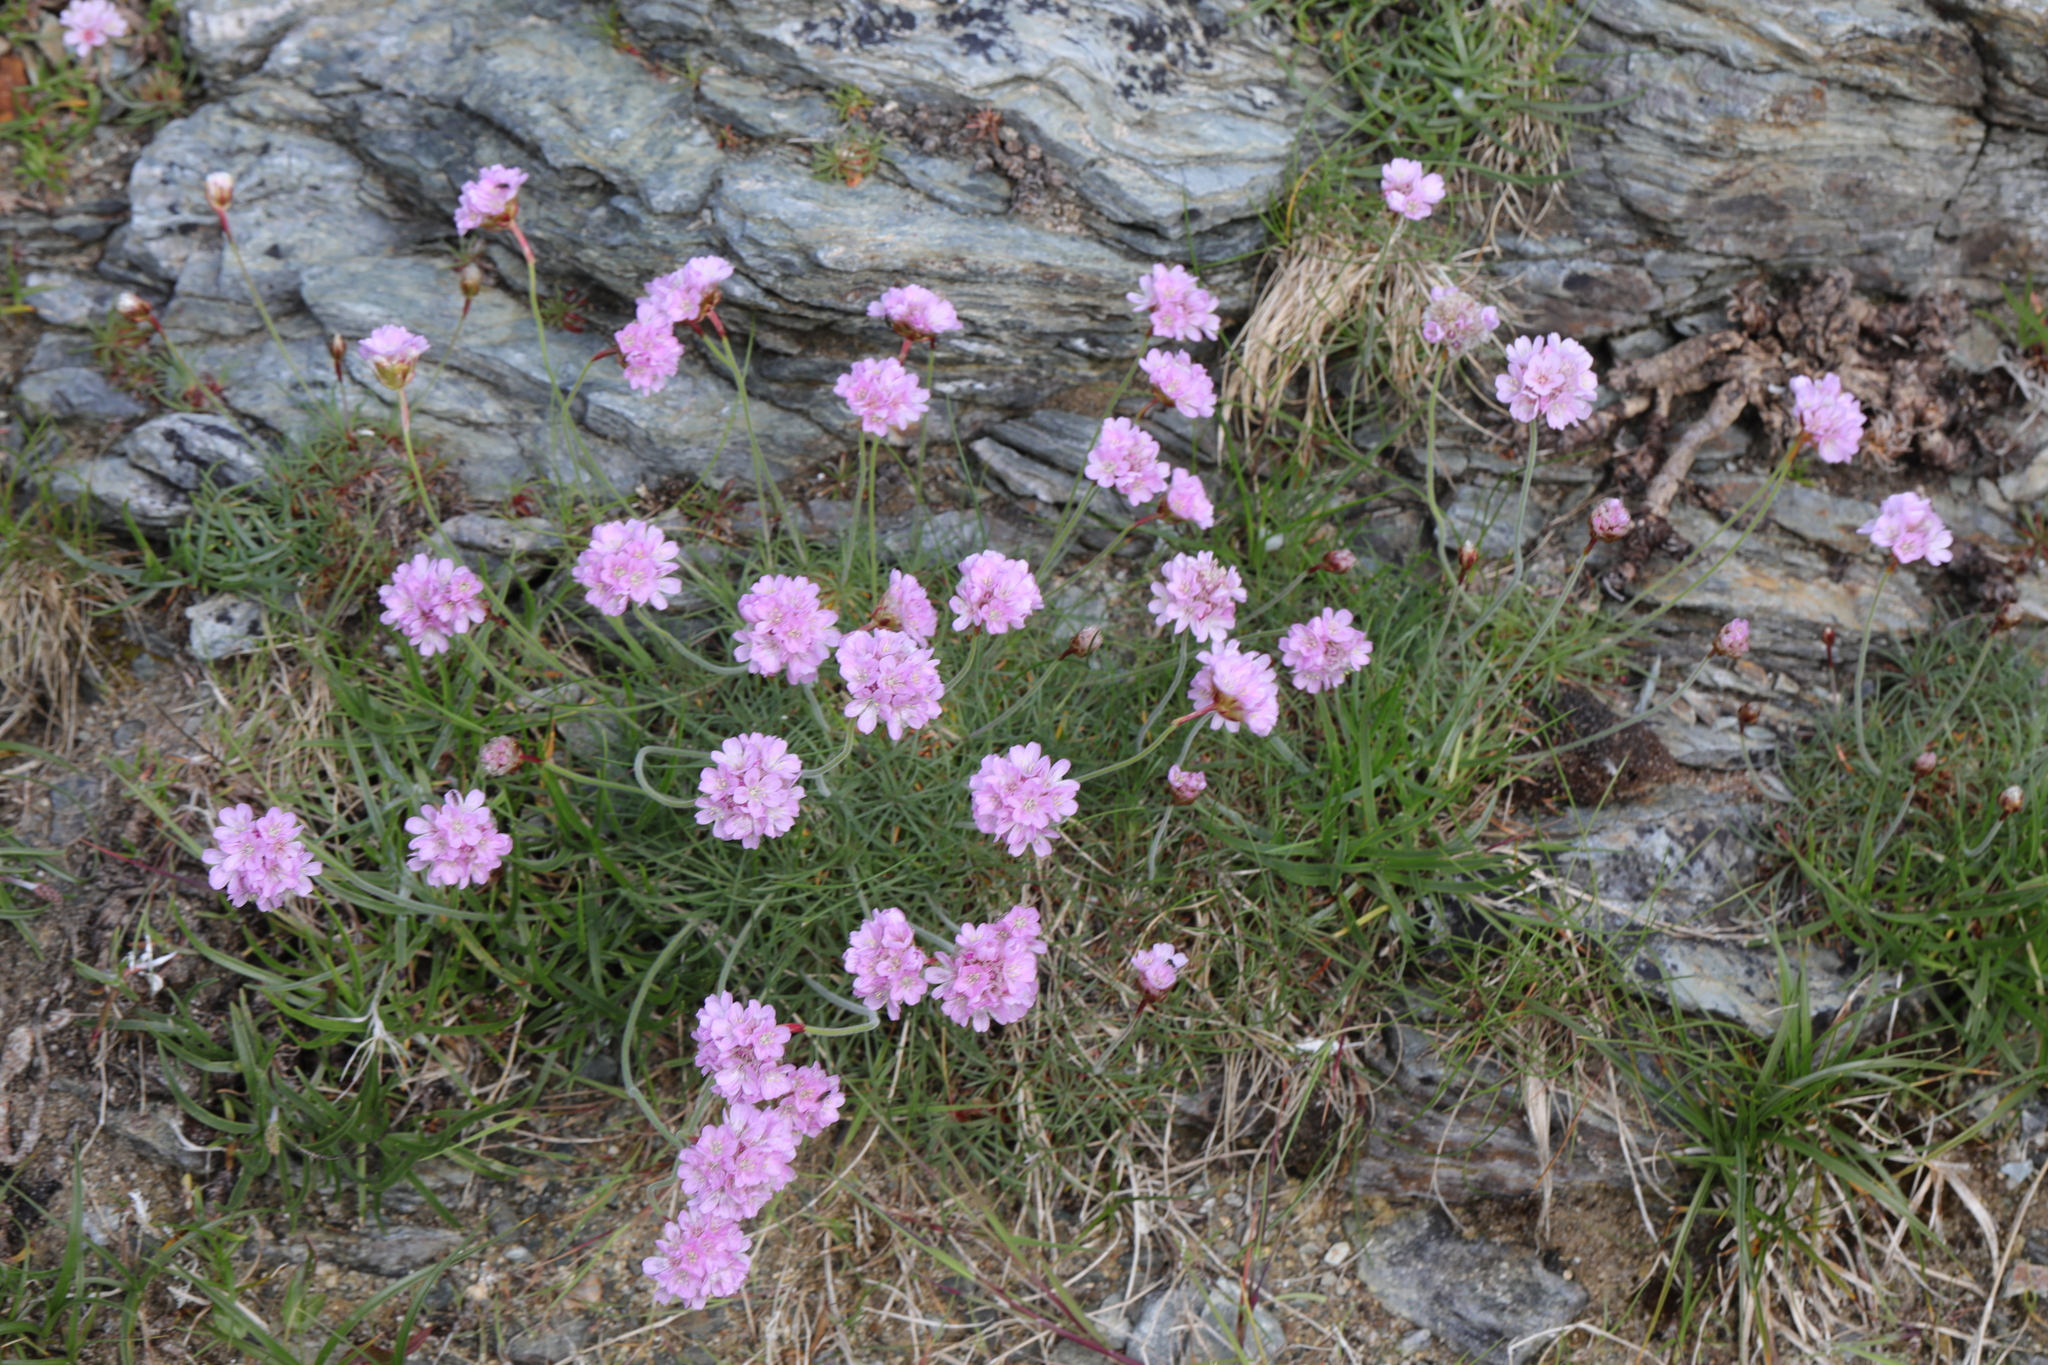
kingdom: Plantae
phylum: Tracheophyta
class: Magnoliopsida
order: Caryophyllales
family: Plumbaginaceae
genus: Armeria
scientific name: Armeria maritima
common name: Thrift
